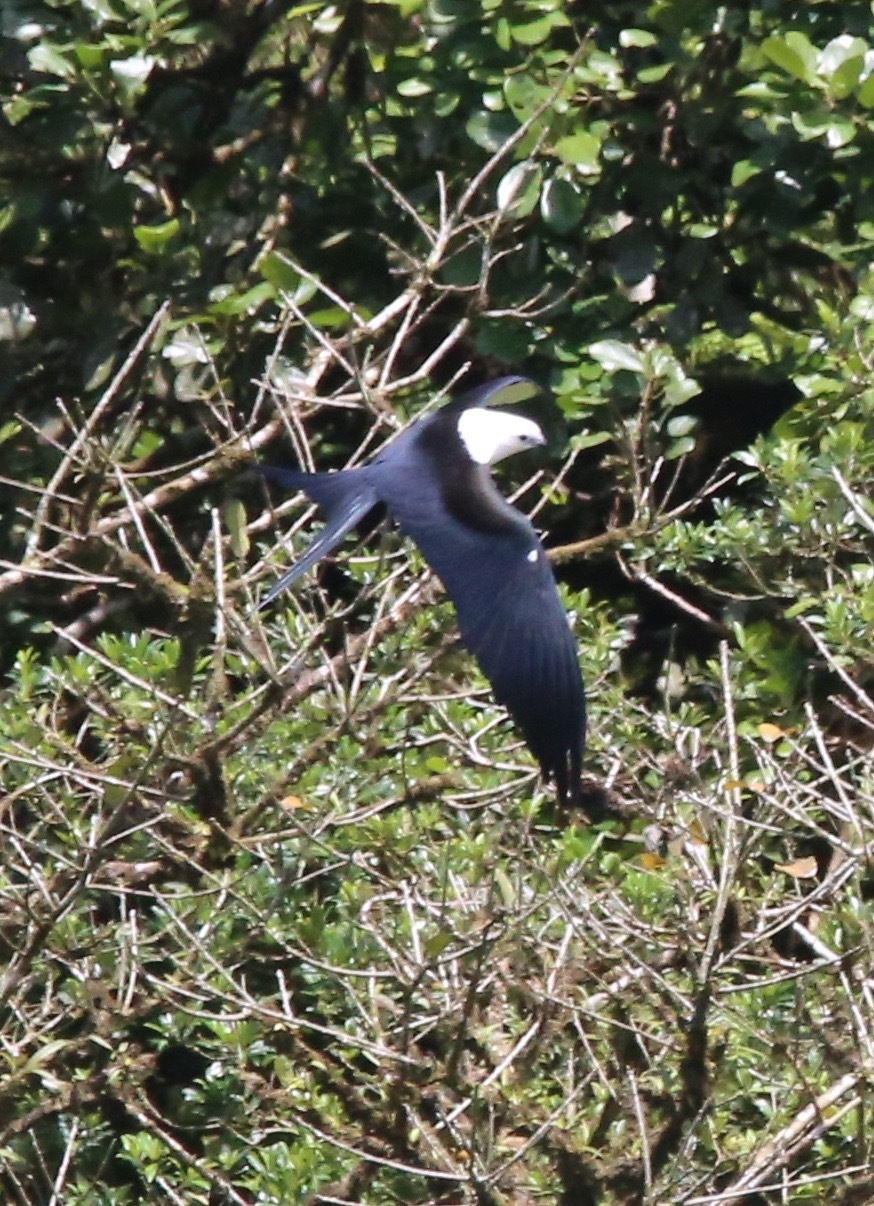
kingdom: Animalia
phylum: Chordata
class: Aves
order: Accipitriformes
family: Accipitridae
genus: Elanoides
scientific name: Elanoides forficatus
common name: Swallow-tailed kite
